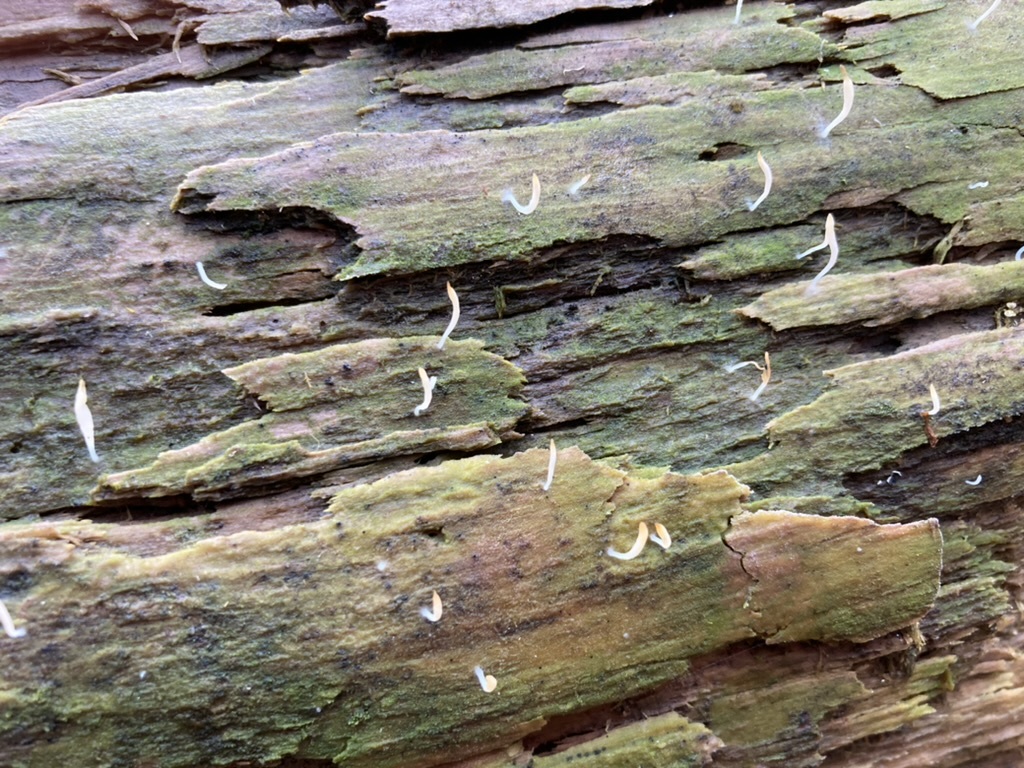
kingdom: Fungi
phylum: Basidiomycota
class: Agaricomycetes
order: Cantharellales
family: Hydnaceae
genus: Multiclavula
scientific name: Multiclavula mucida
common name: White green-algae coral
